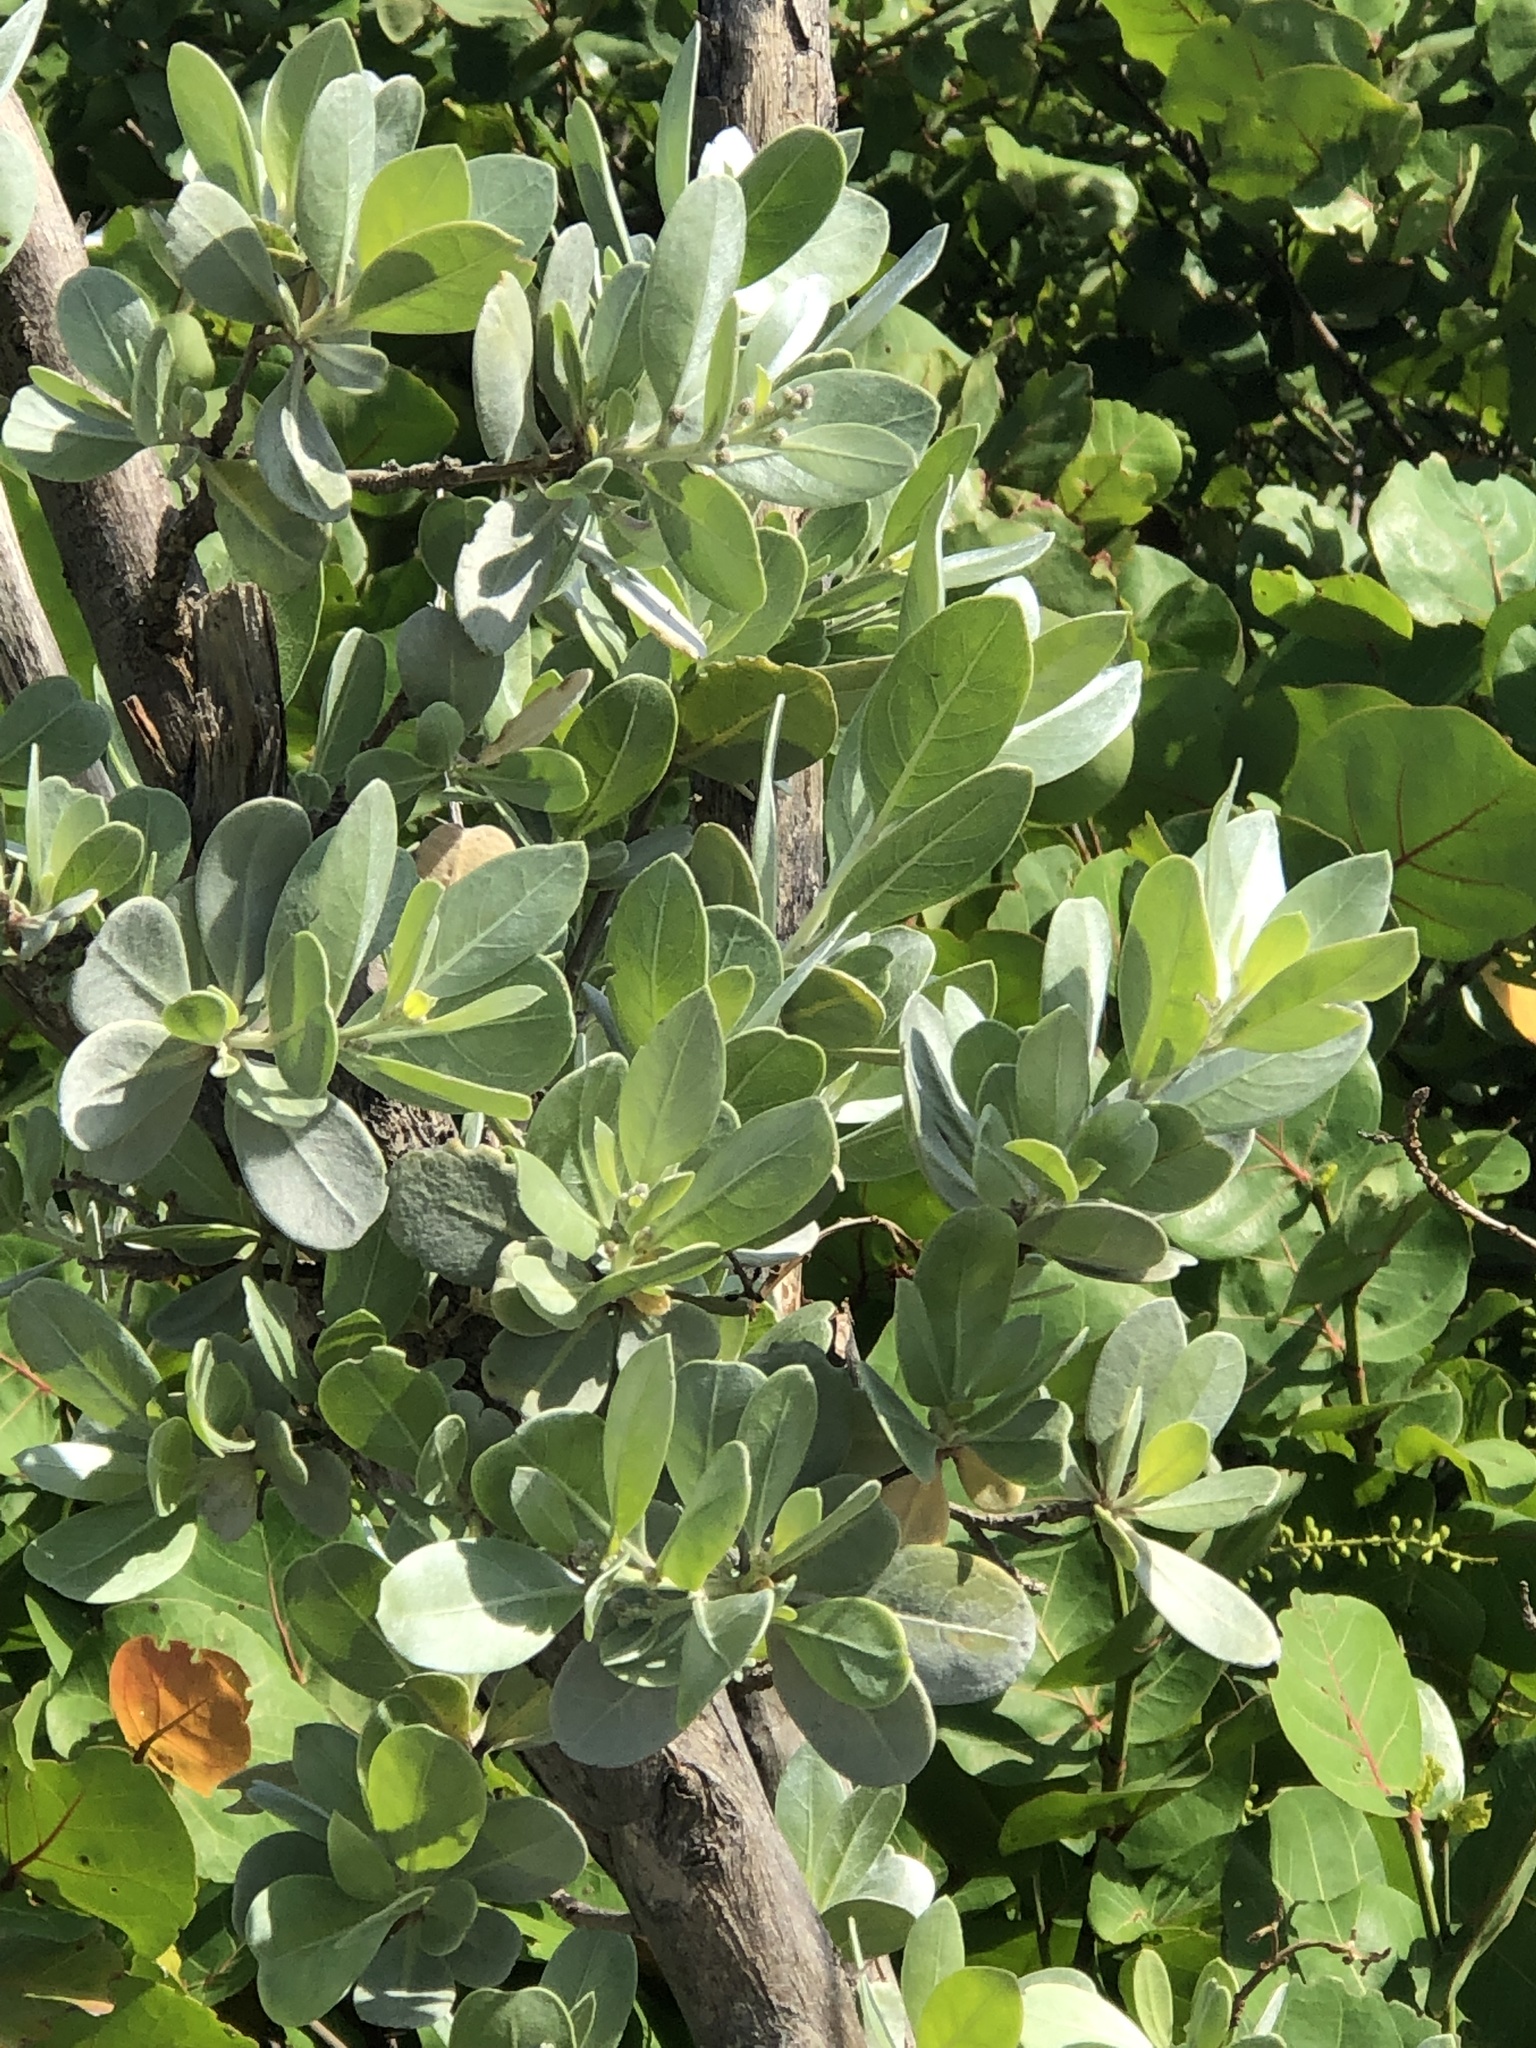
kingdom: Plantae
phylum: Tracheophyta
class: Magnoliopsida
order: Myrtales
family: Combretaceae
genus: Conocarpus
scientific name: Conocarpus erectus
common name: Button mangrove
